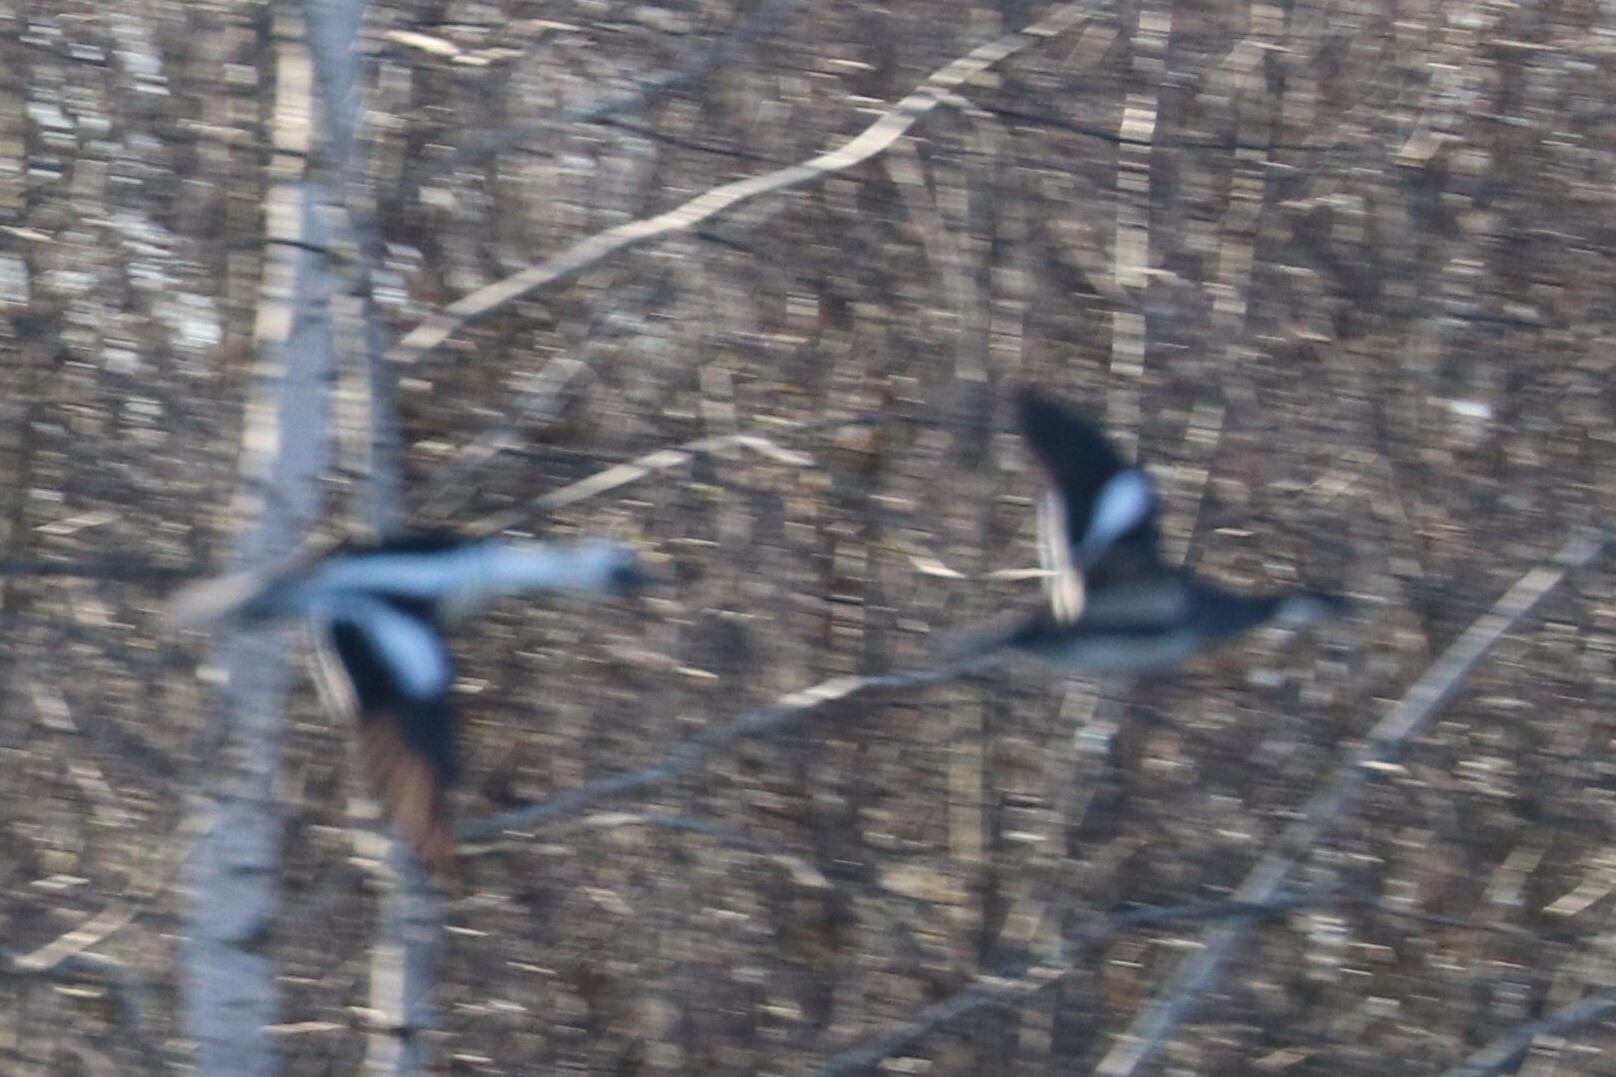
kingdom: Animalia
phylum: Chordata
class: Aves
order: Anseriformes
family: Anatidae
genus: Mergellus
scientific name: Mergellus albellus
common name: Smew
